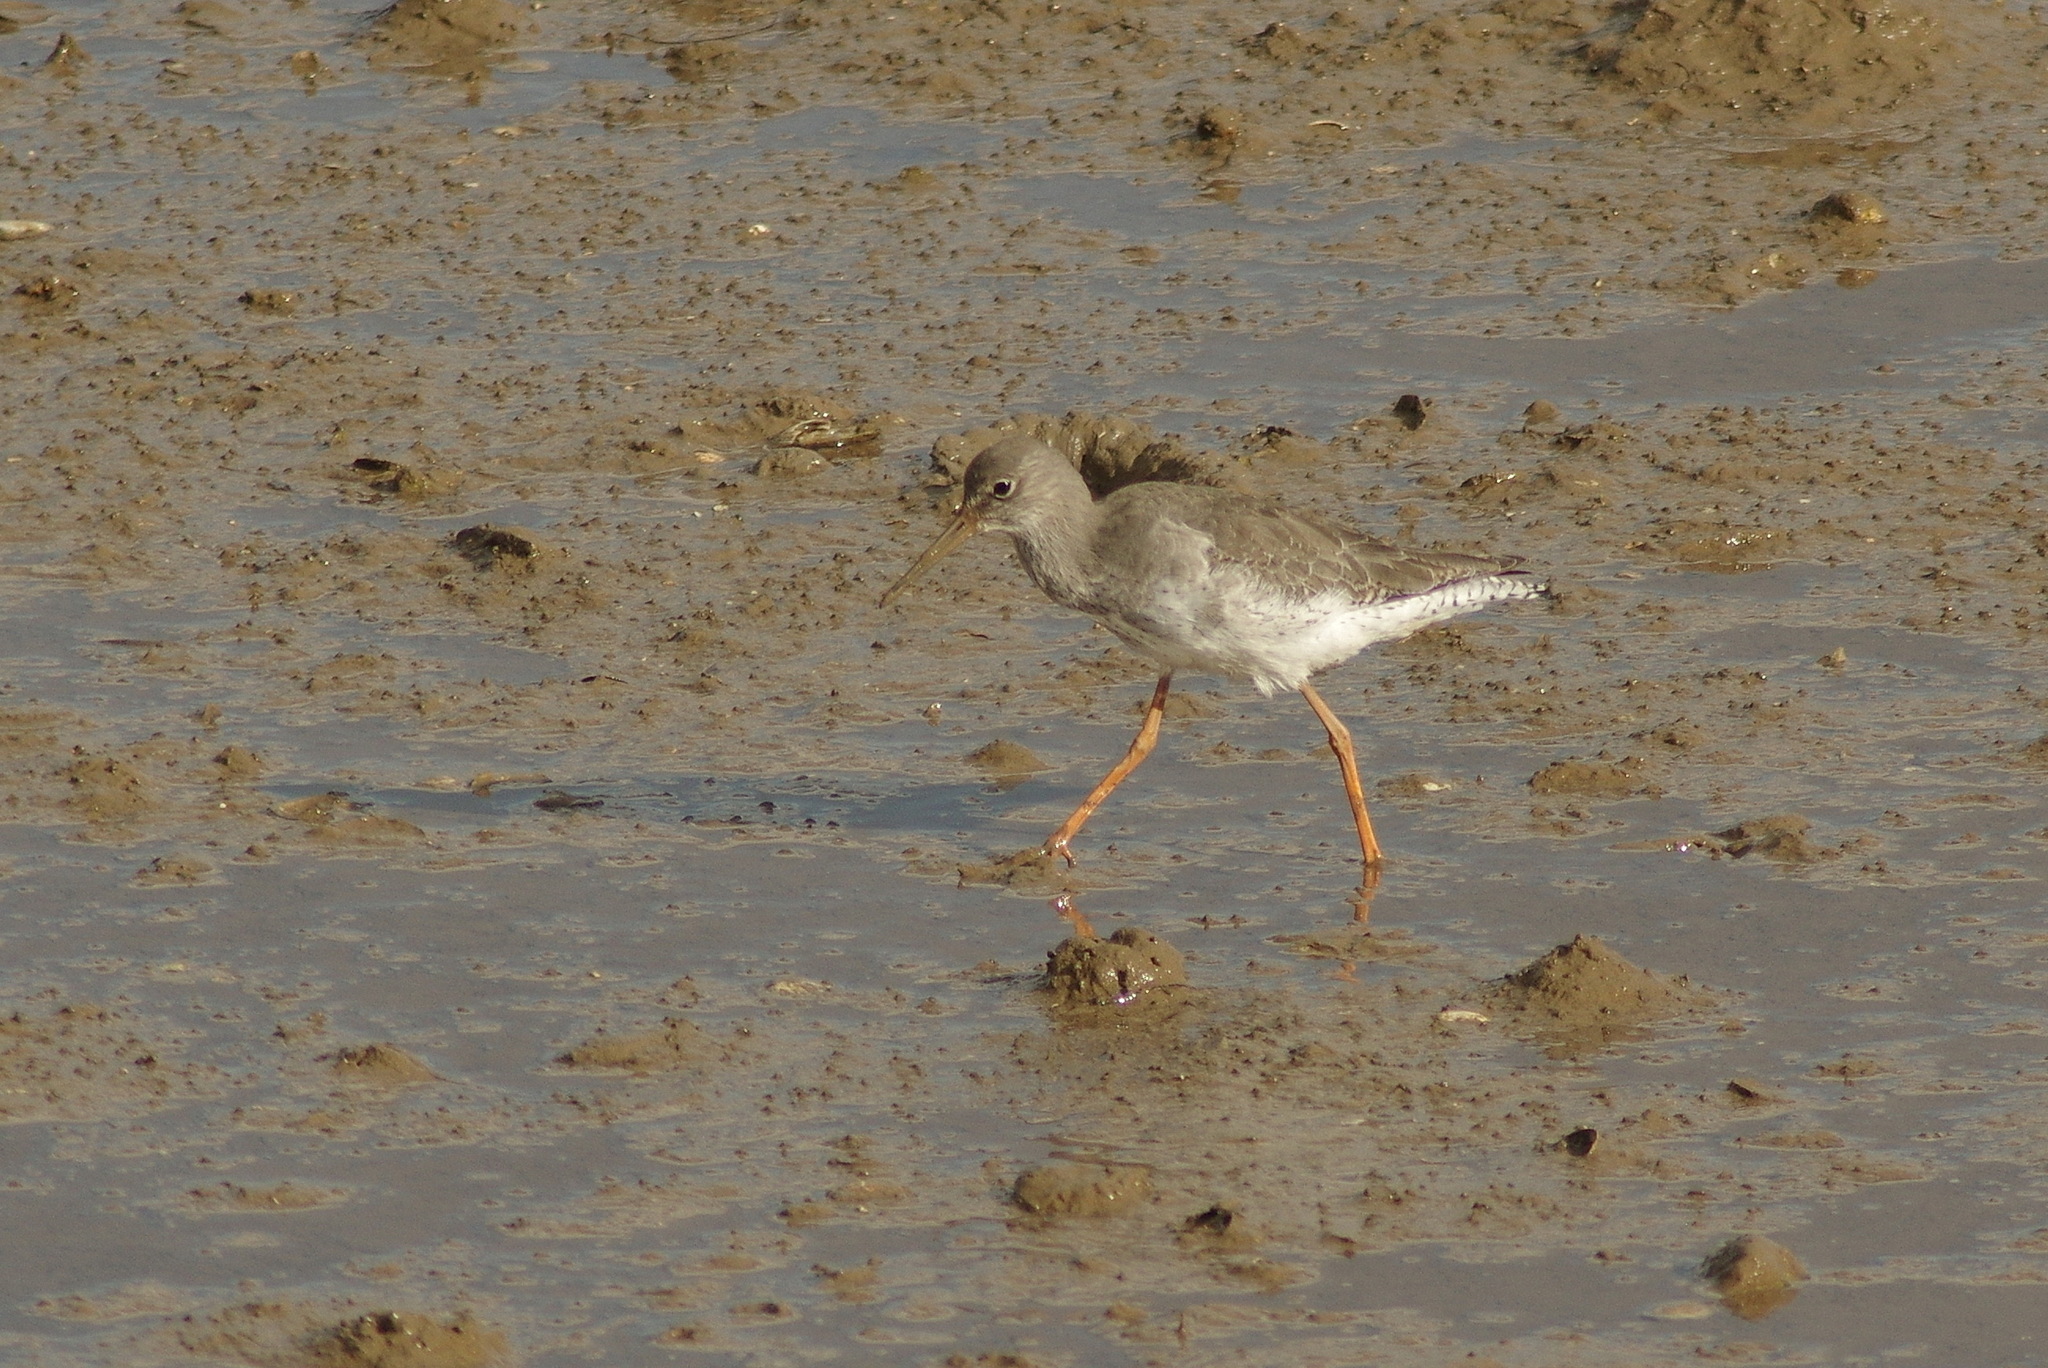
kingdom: Animalia
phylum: Chordata
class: Aves
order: Charadriiformes
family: Scolopacidae
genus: Tringa
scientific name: Tringa totanus
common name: Common redshank
